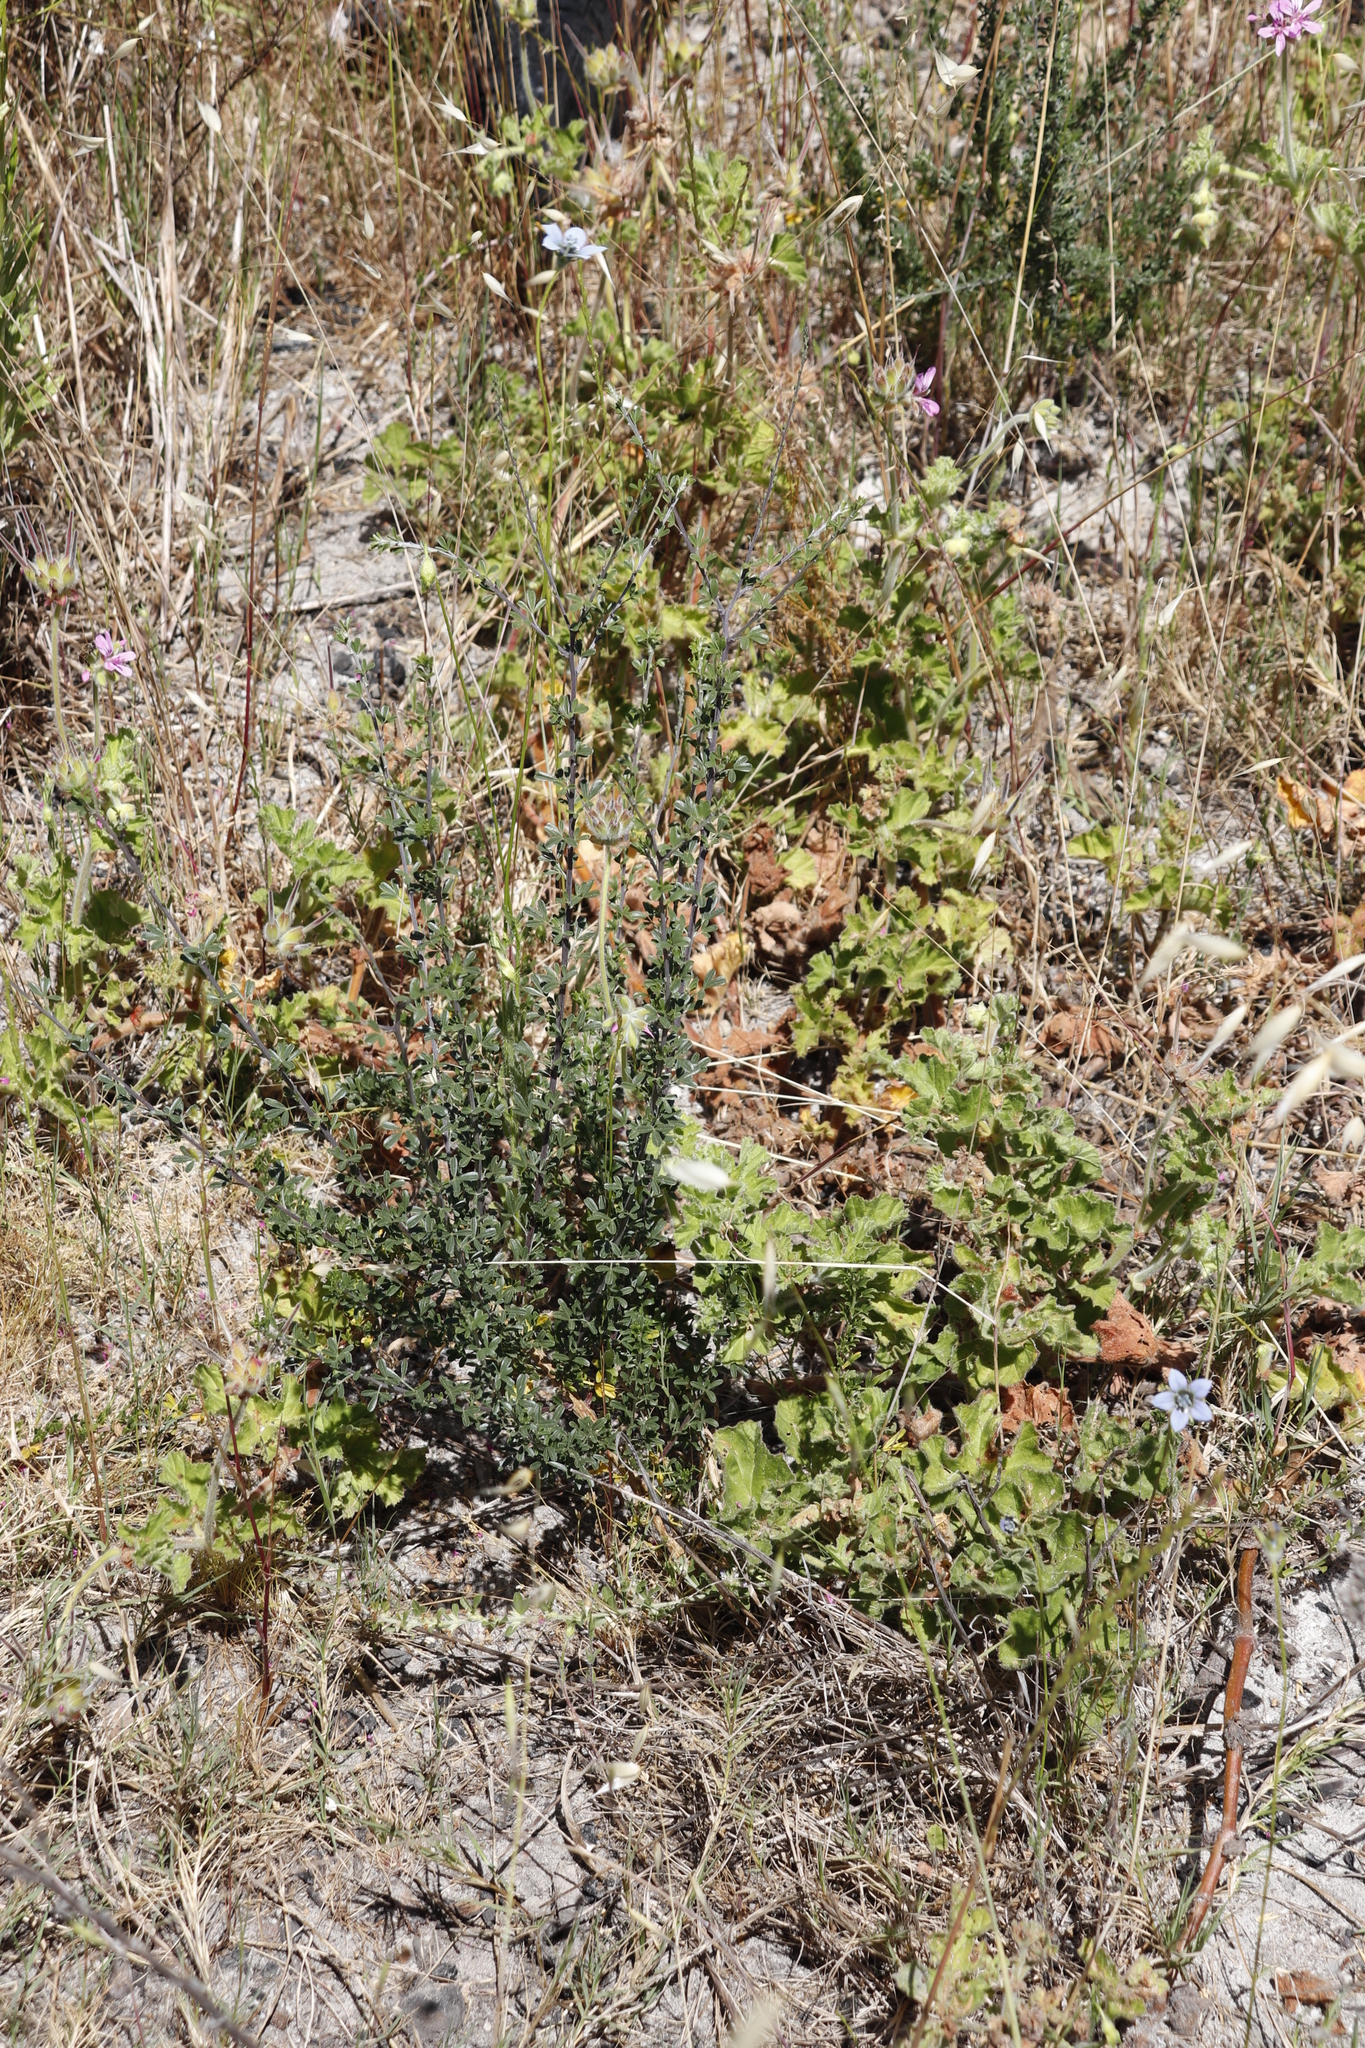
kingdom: Plantae
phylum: Tracheophyta
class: Magnoliopsida
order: Asterales
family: Campanulaceae
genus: Wahlenbergia
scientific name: Wahlenbergia capensis
